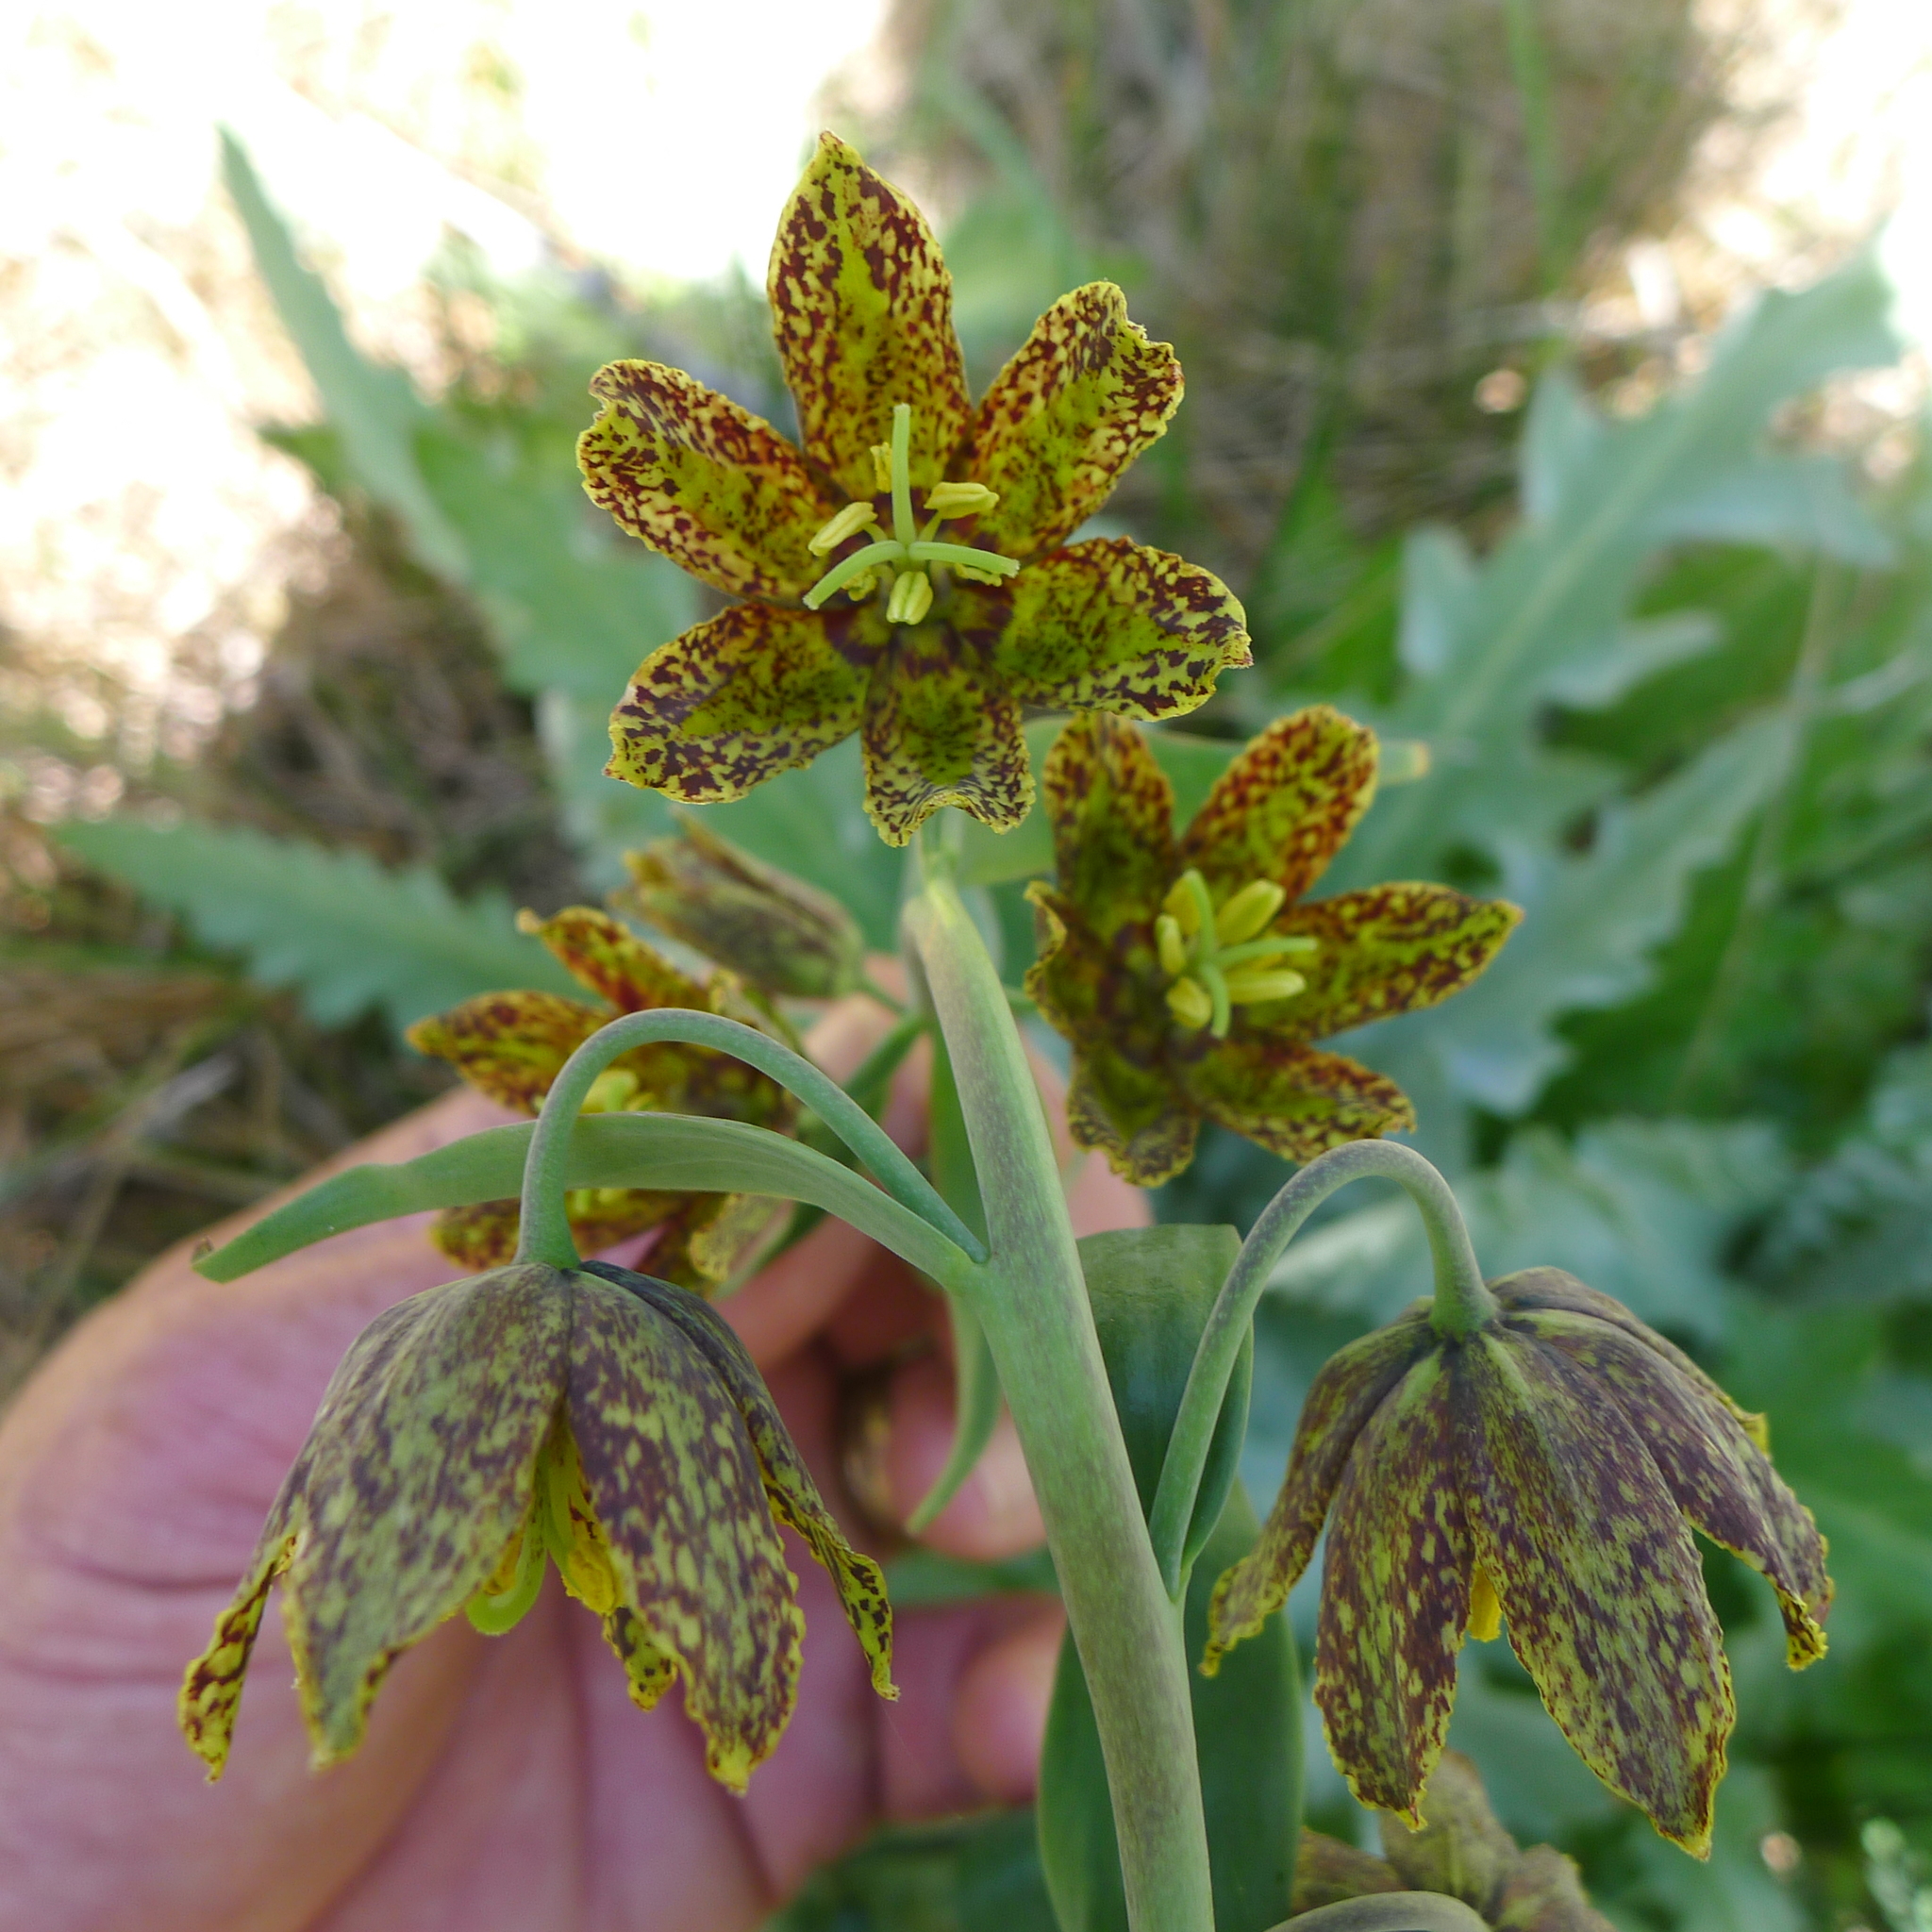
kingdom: Plantae
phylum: Tracheophyta
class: Liliopsida
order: Liliales
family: Liliaceae
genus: Fritillaria
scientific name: Fritillaria affinis
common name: Ojai fritillary
